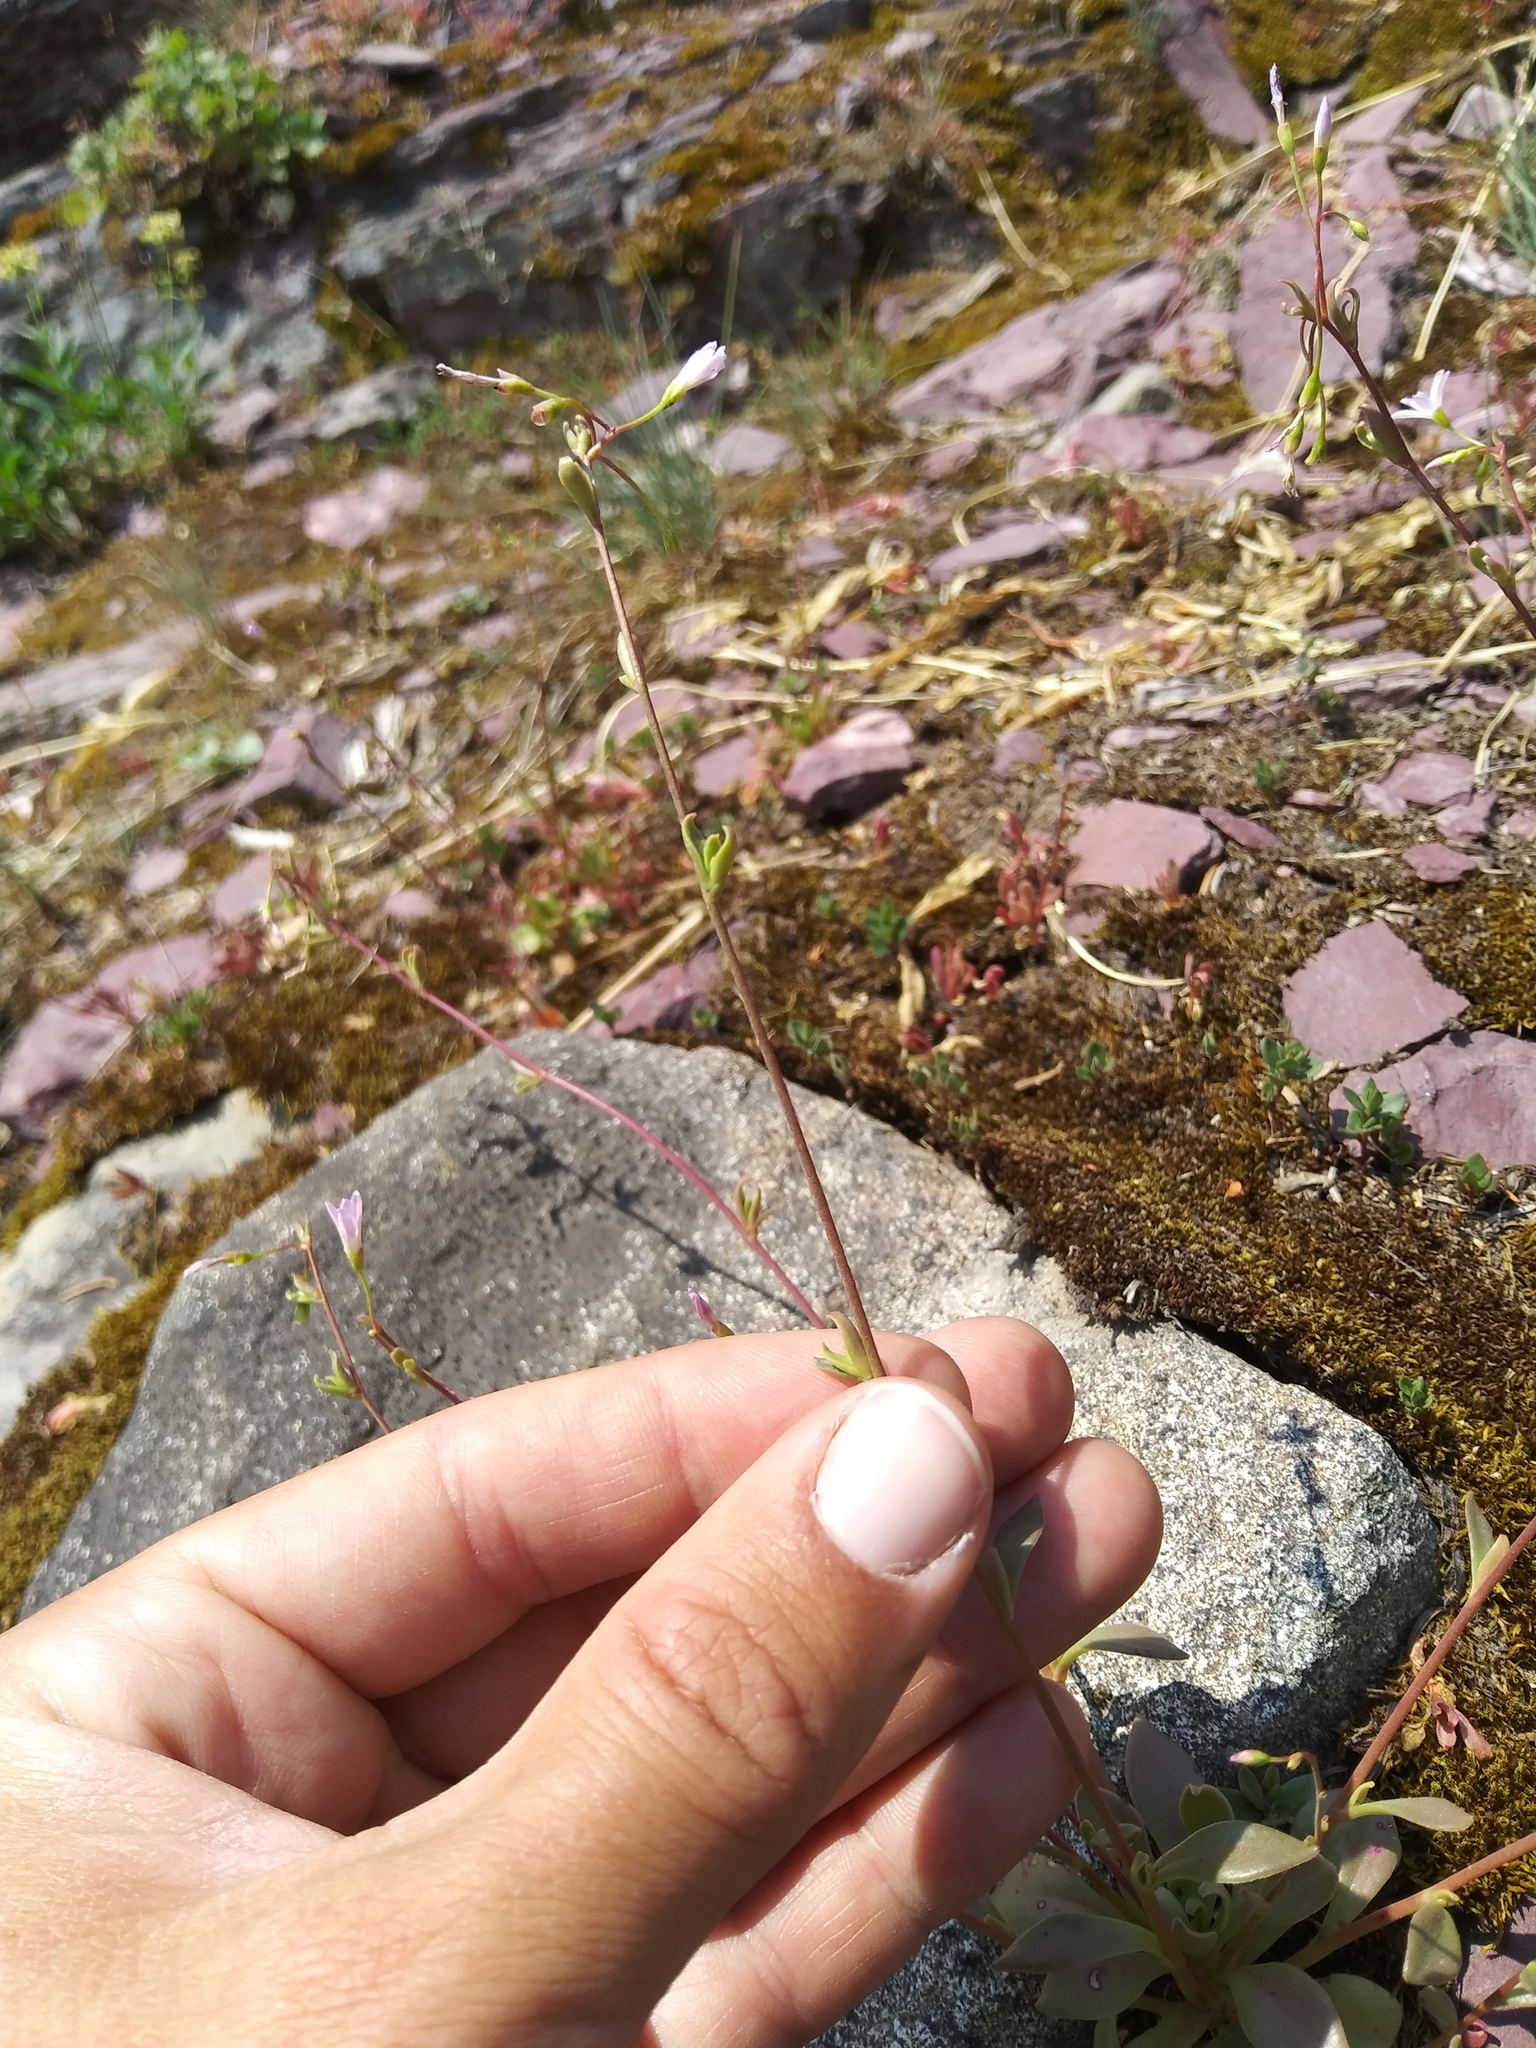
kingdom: Plantae
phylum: Tracheophyta
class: Magnoliopsida
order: Caryophyllales
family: Montiaceae
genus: Montia
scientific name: Montia parvifolia
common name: Small-leaved blinks
